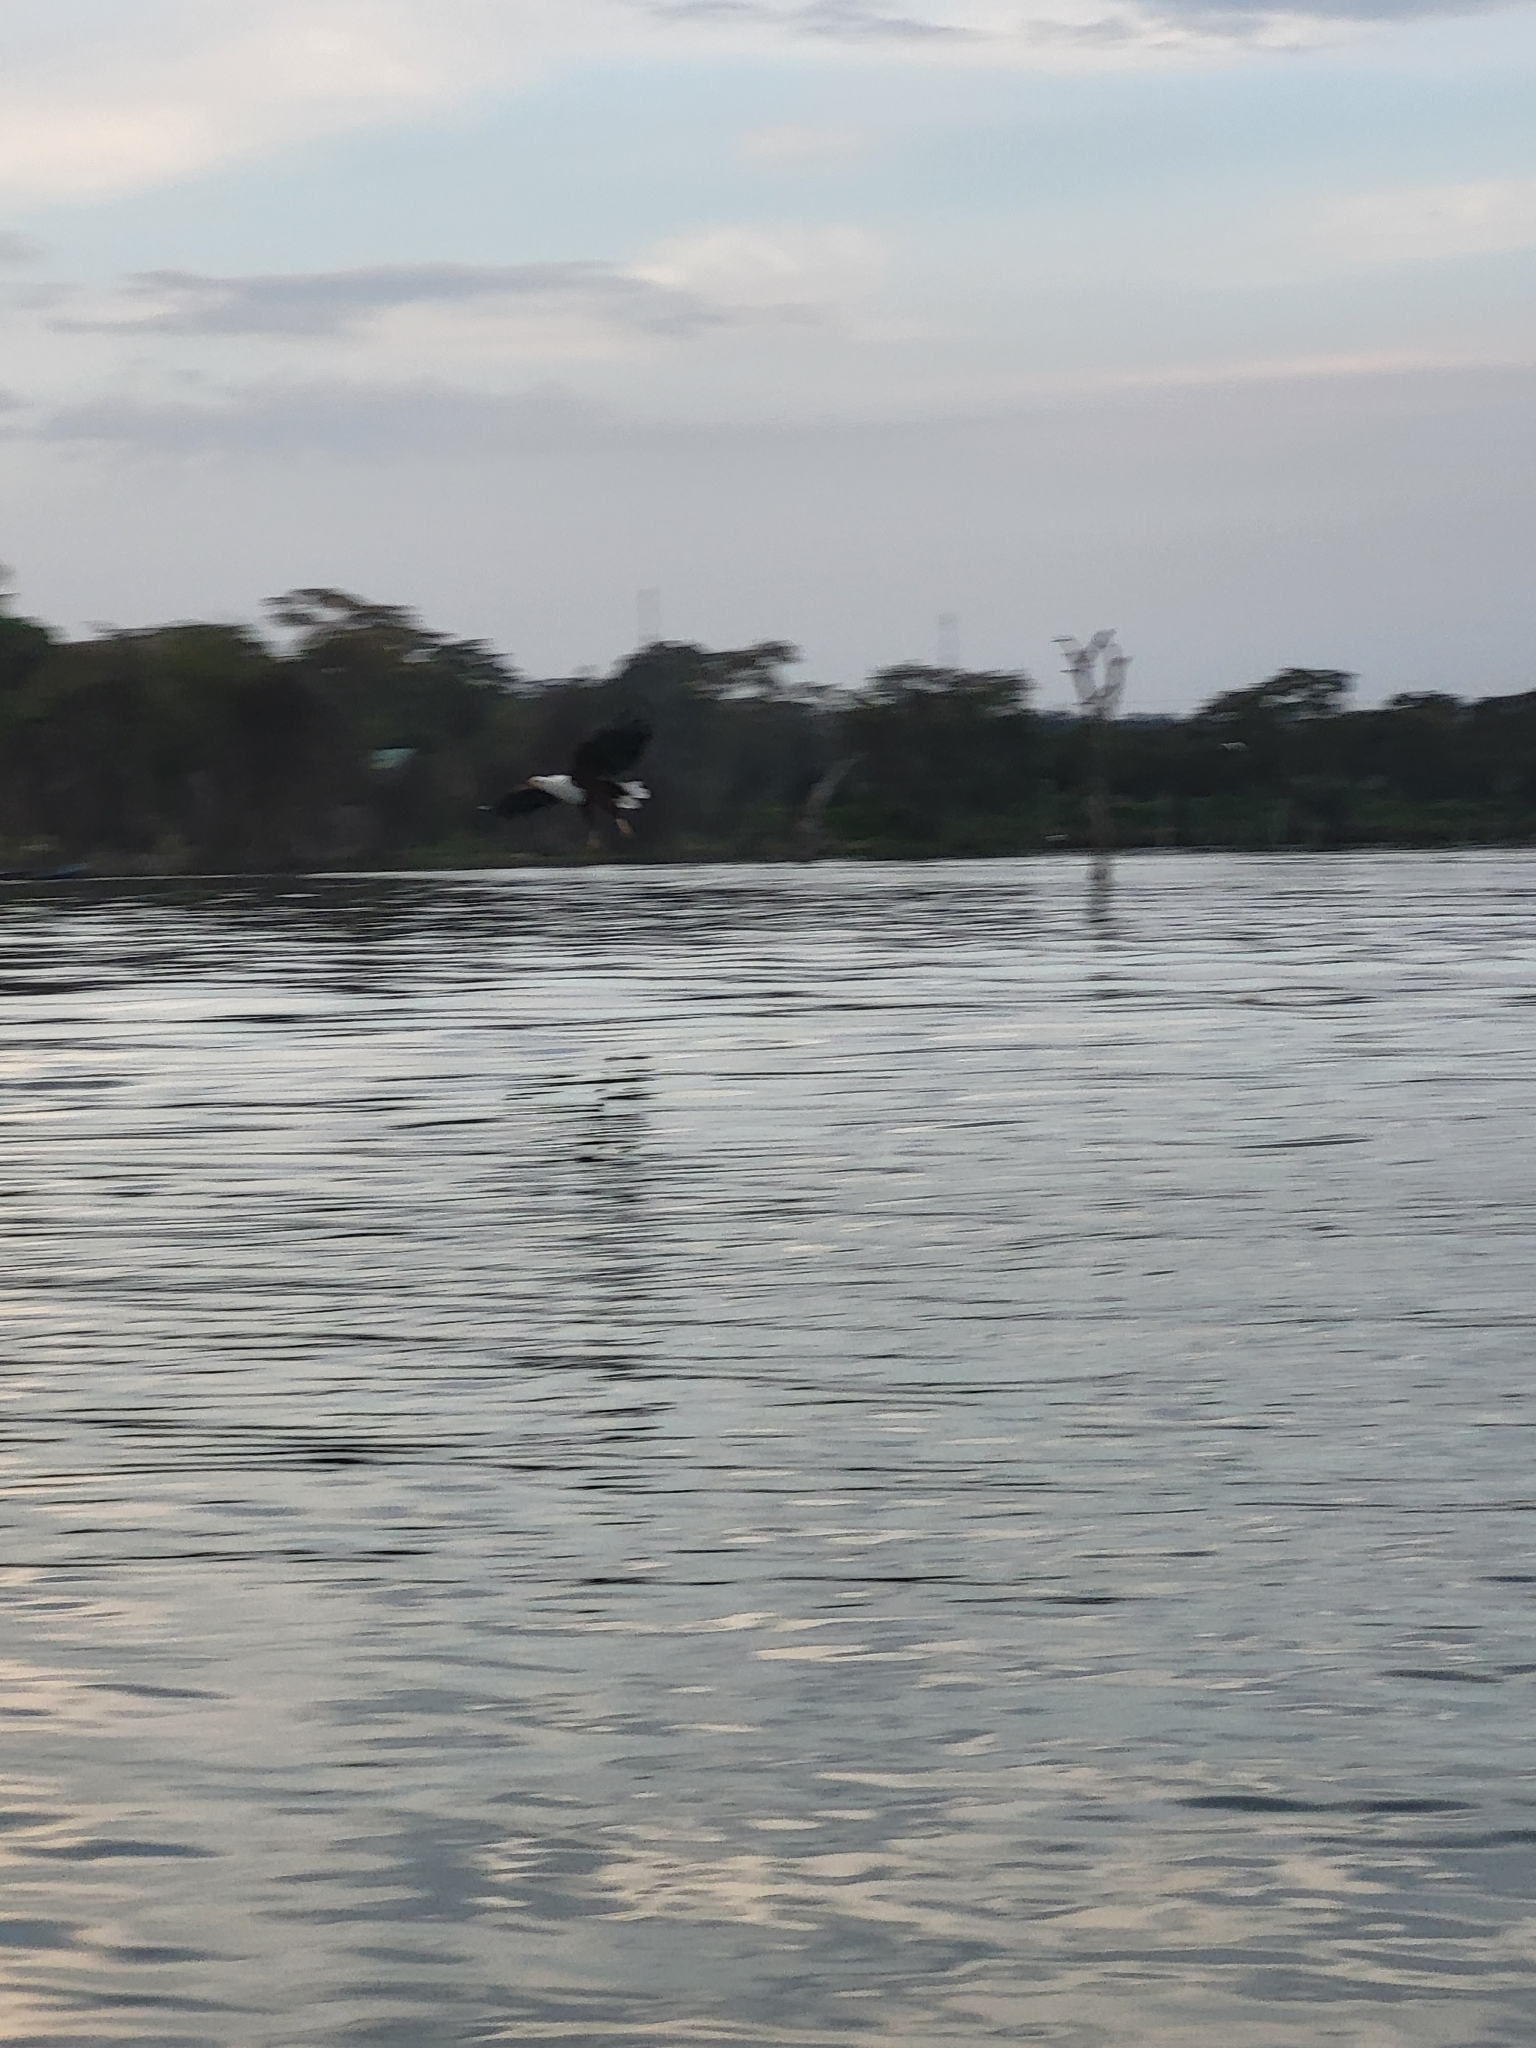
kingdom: Animalia
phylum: Chordata
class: Aves
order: Accipitriformes
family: Accipitridae
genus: Haliaeetus
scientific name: Haliaeetus vocifer
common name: African fish eagle
